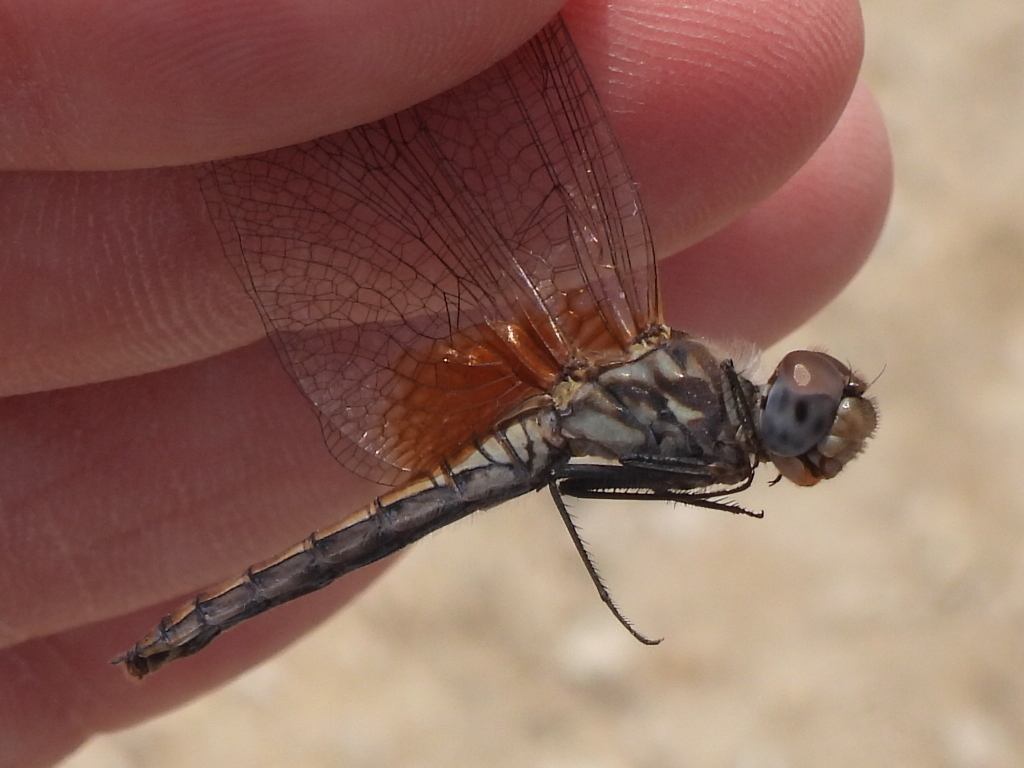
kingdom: Animalia
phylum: Arthropoda
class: Insecta
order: Odonata
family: Libellulidae
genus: Trithemis
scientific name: Trithemis annulata
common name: Violet dropwing
